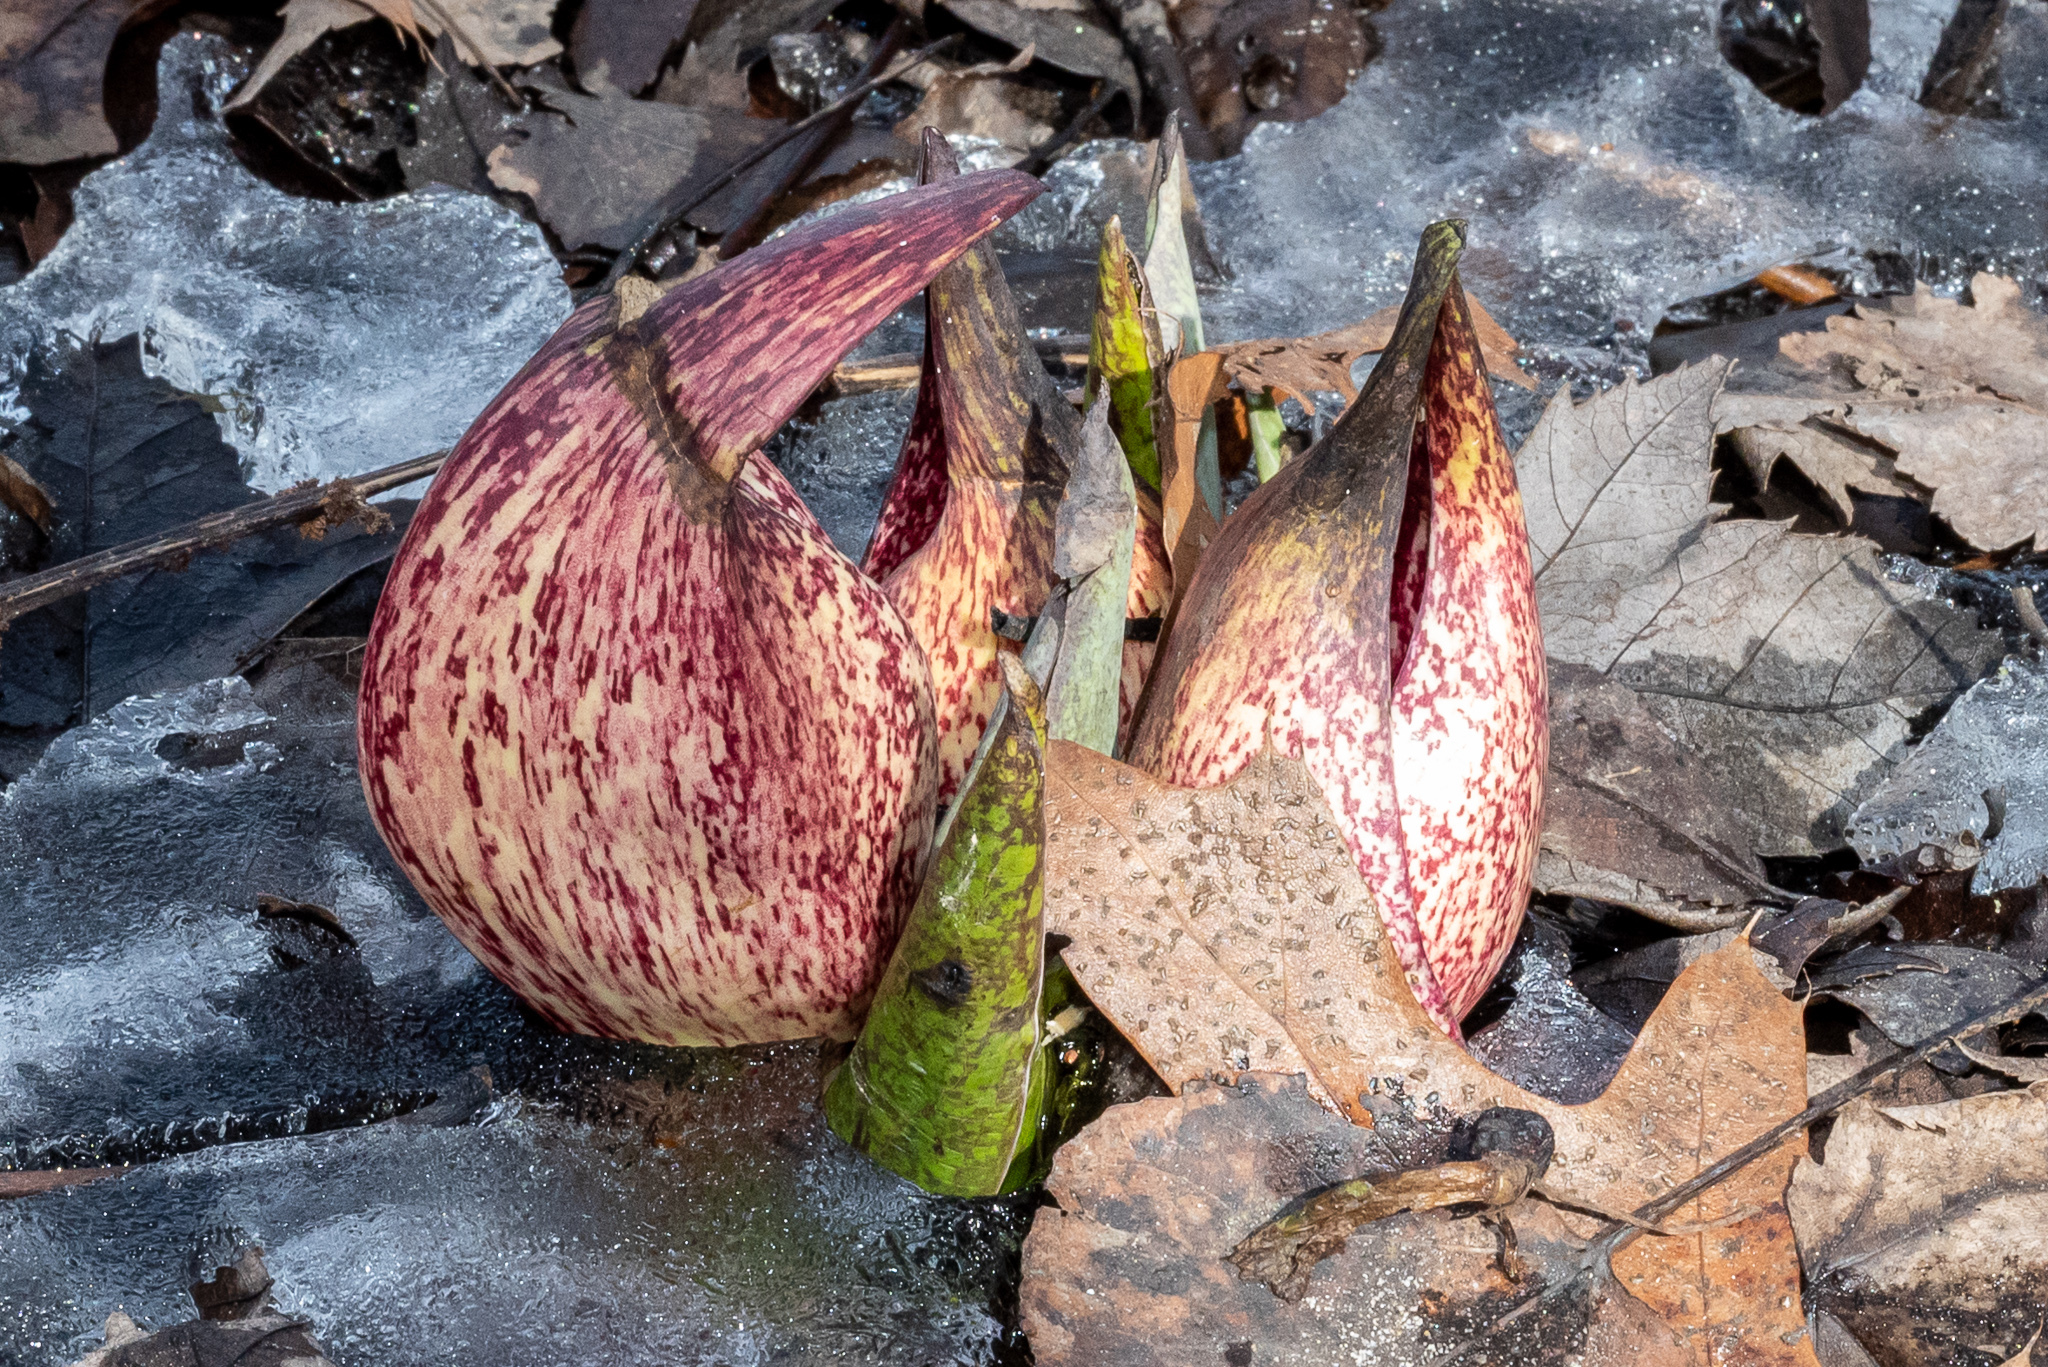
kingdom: Plantae
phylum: Tracheophyta
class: Liliopsida
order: Alismatales
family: Araceae
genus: Symplocarpus
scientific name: Symplocarpus foetidus
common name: Eastern skunk cabbage
